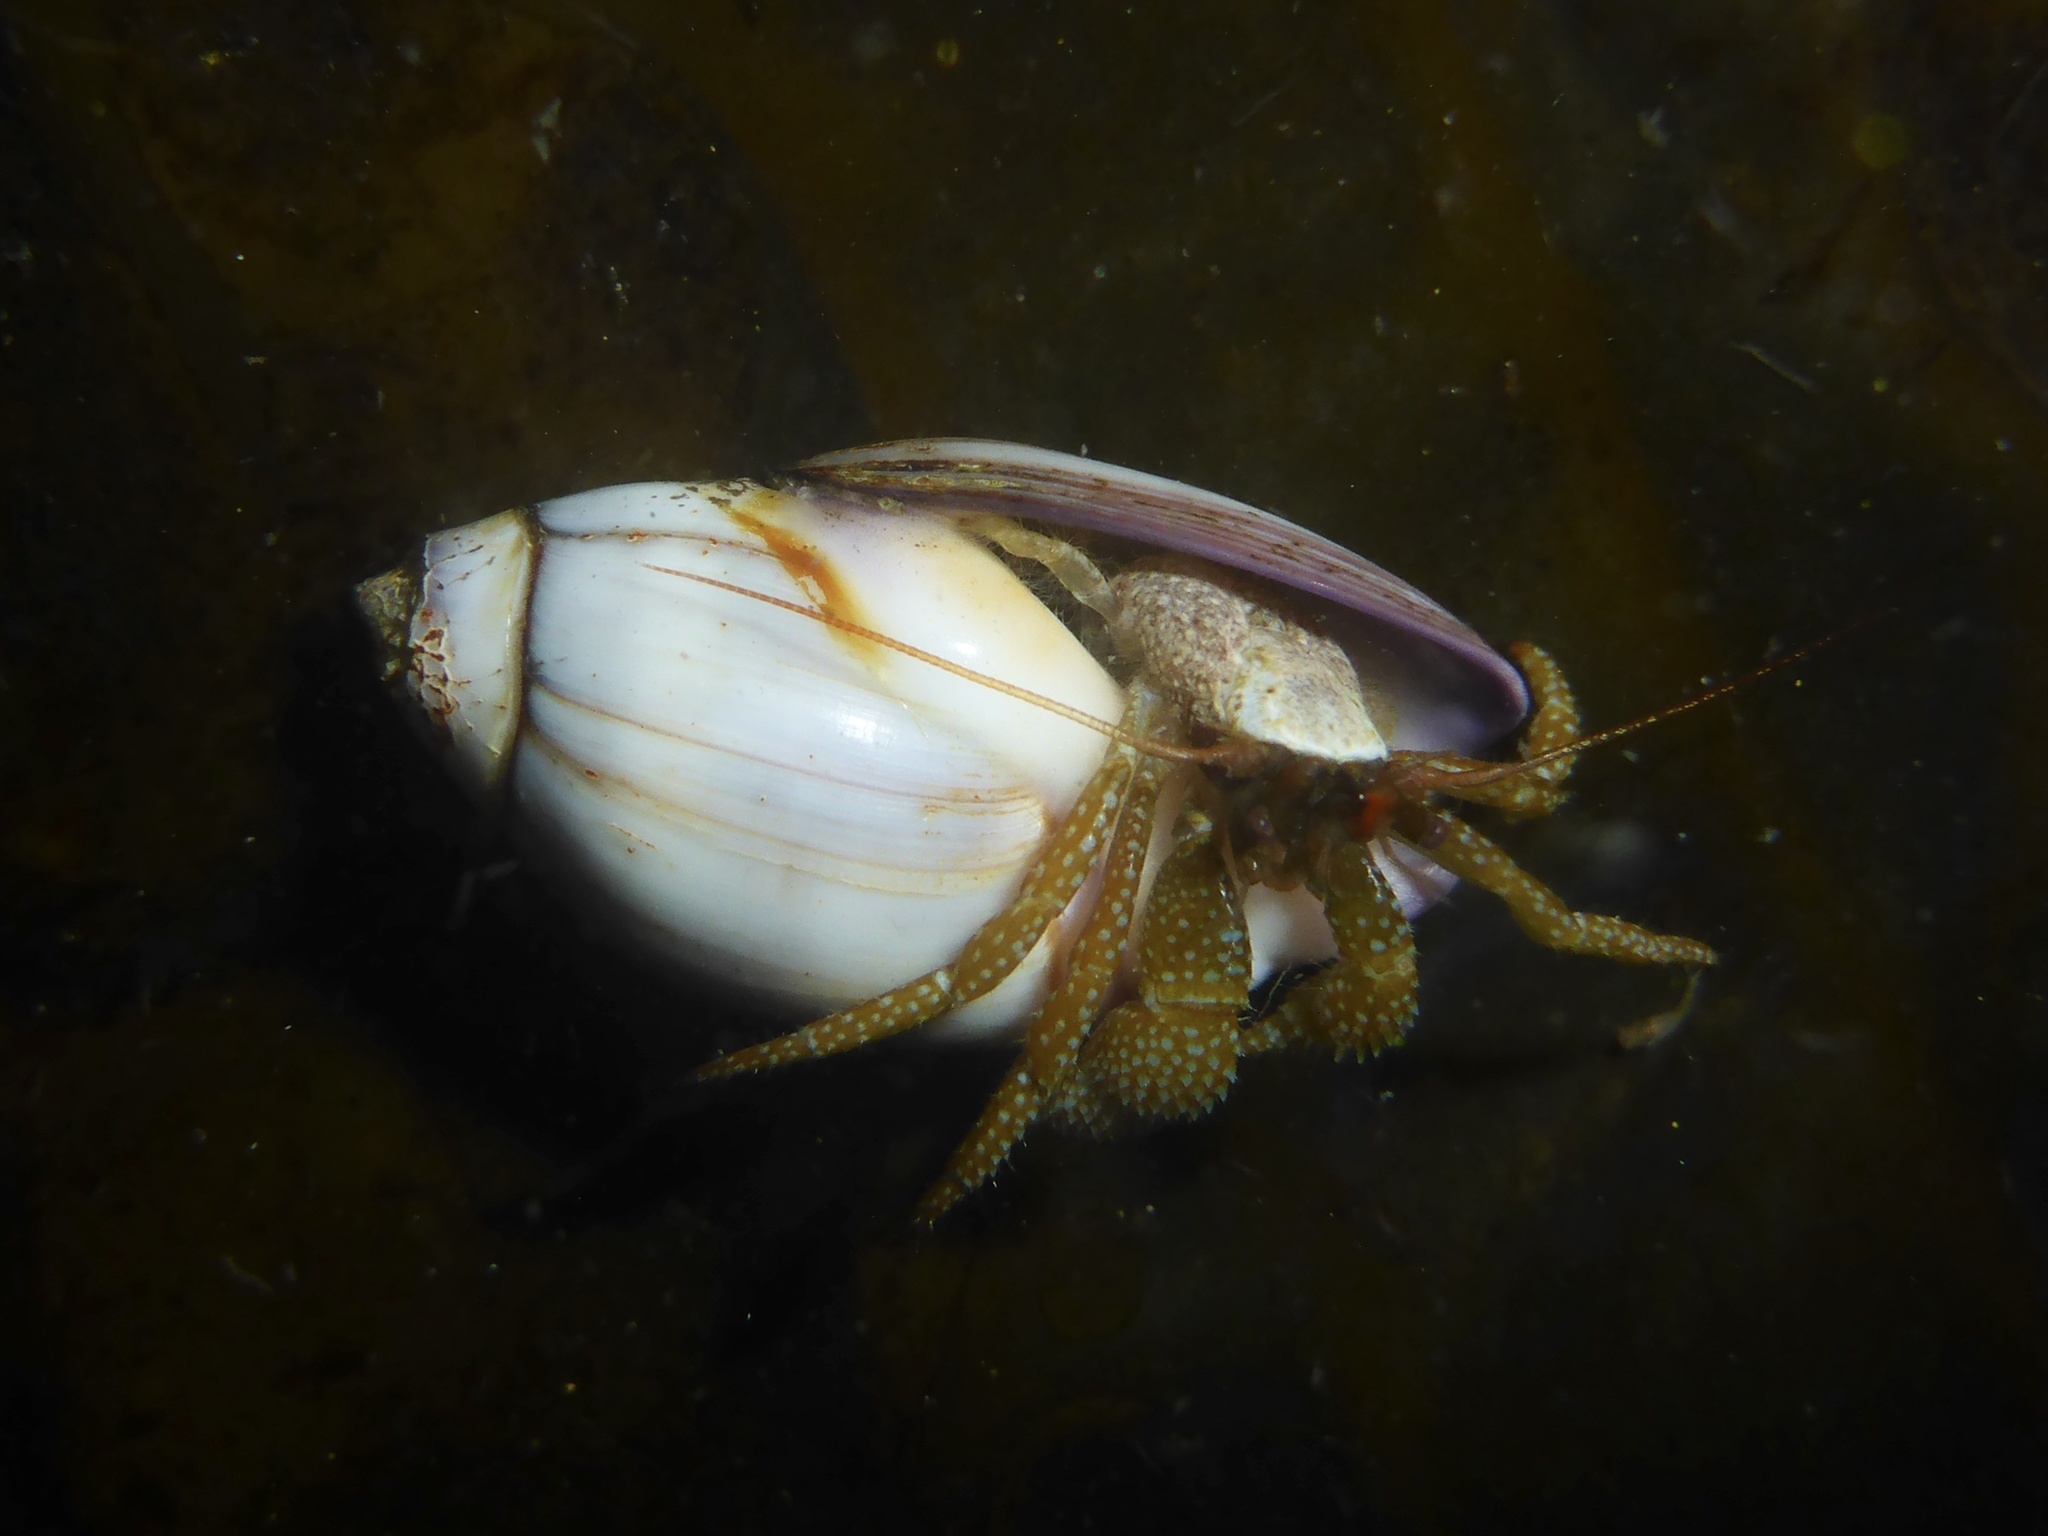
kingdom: Animalia
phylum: Arthropoda
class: Malacostraca
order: Decapoda
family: Paguridae
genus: Pagurus
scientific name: Pagurus granosimanus
